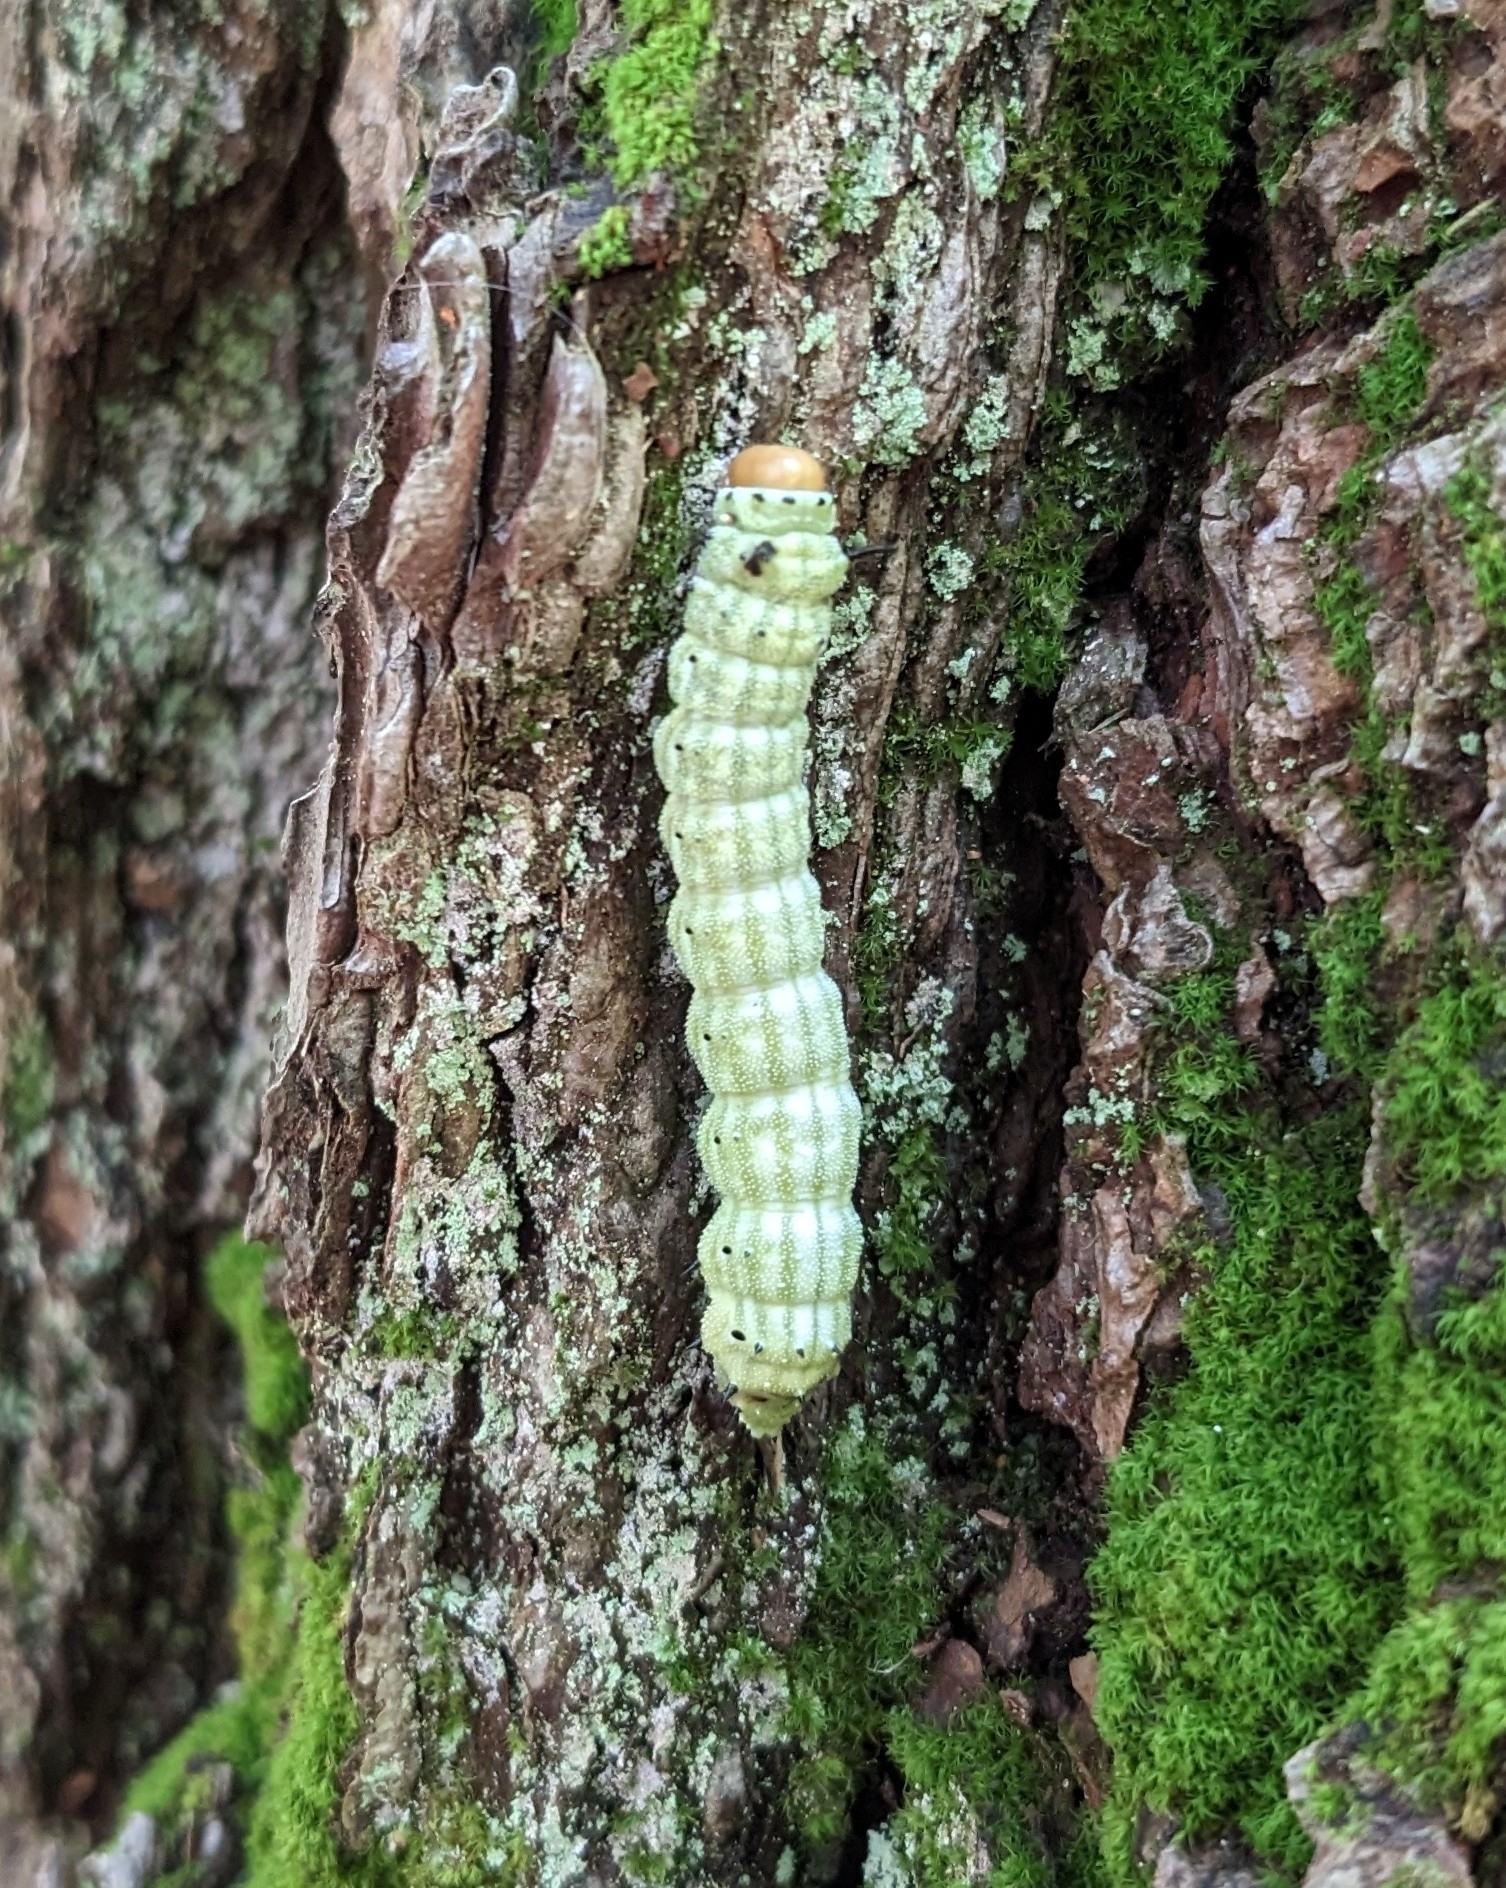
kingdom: Animalia
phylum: Arthropoda
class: Insecta
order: Lepidoptera
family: Saturniidae
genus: Dryocampa
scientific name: Dryocampa rubicunda
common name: Rosy maple moth
